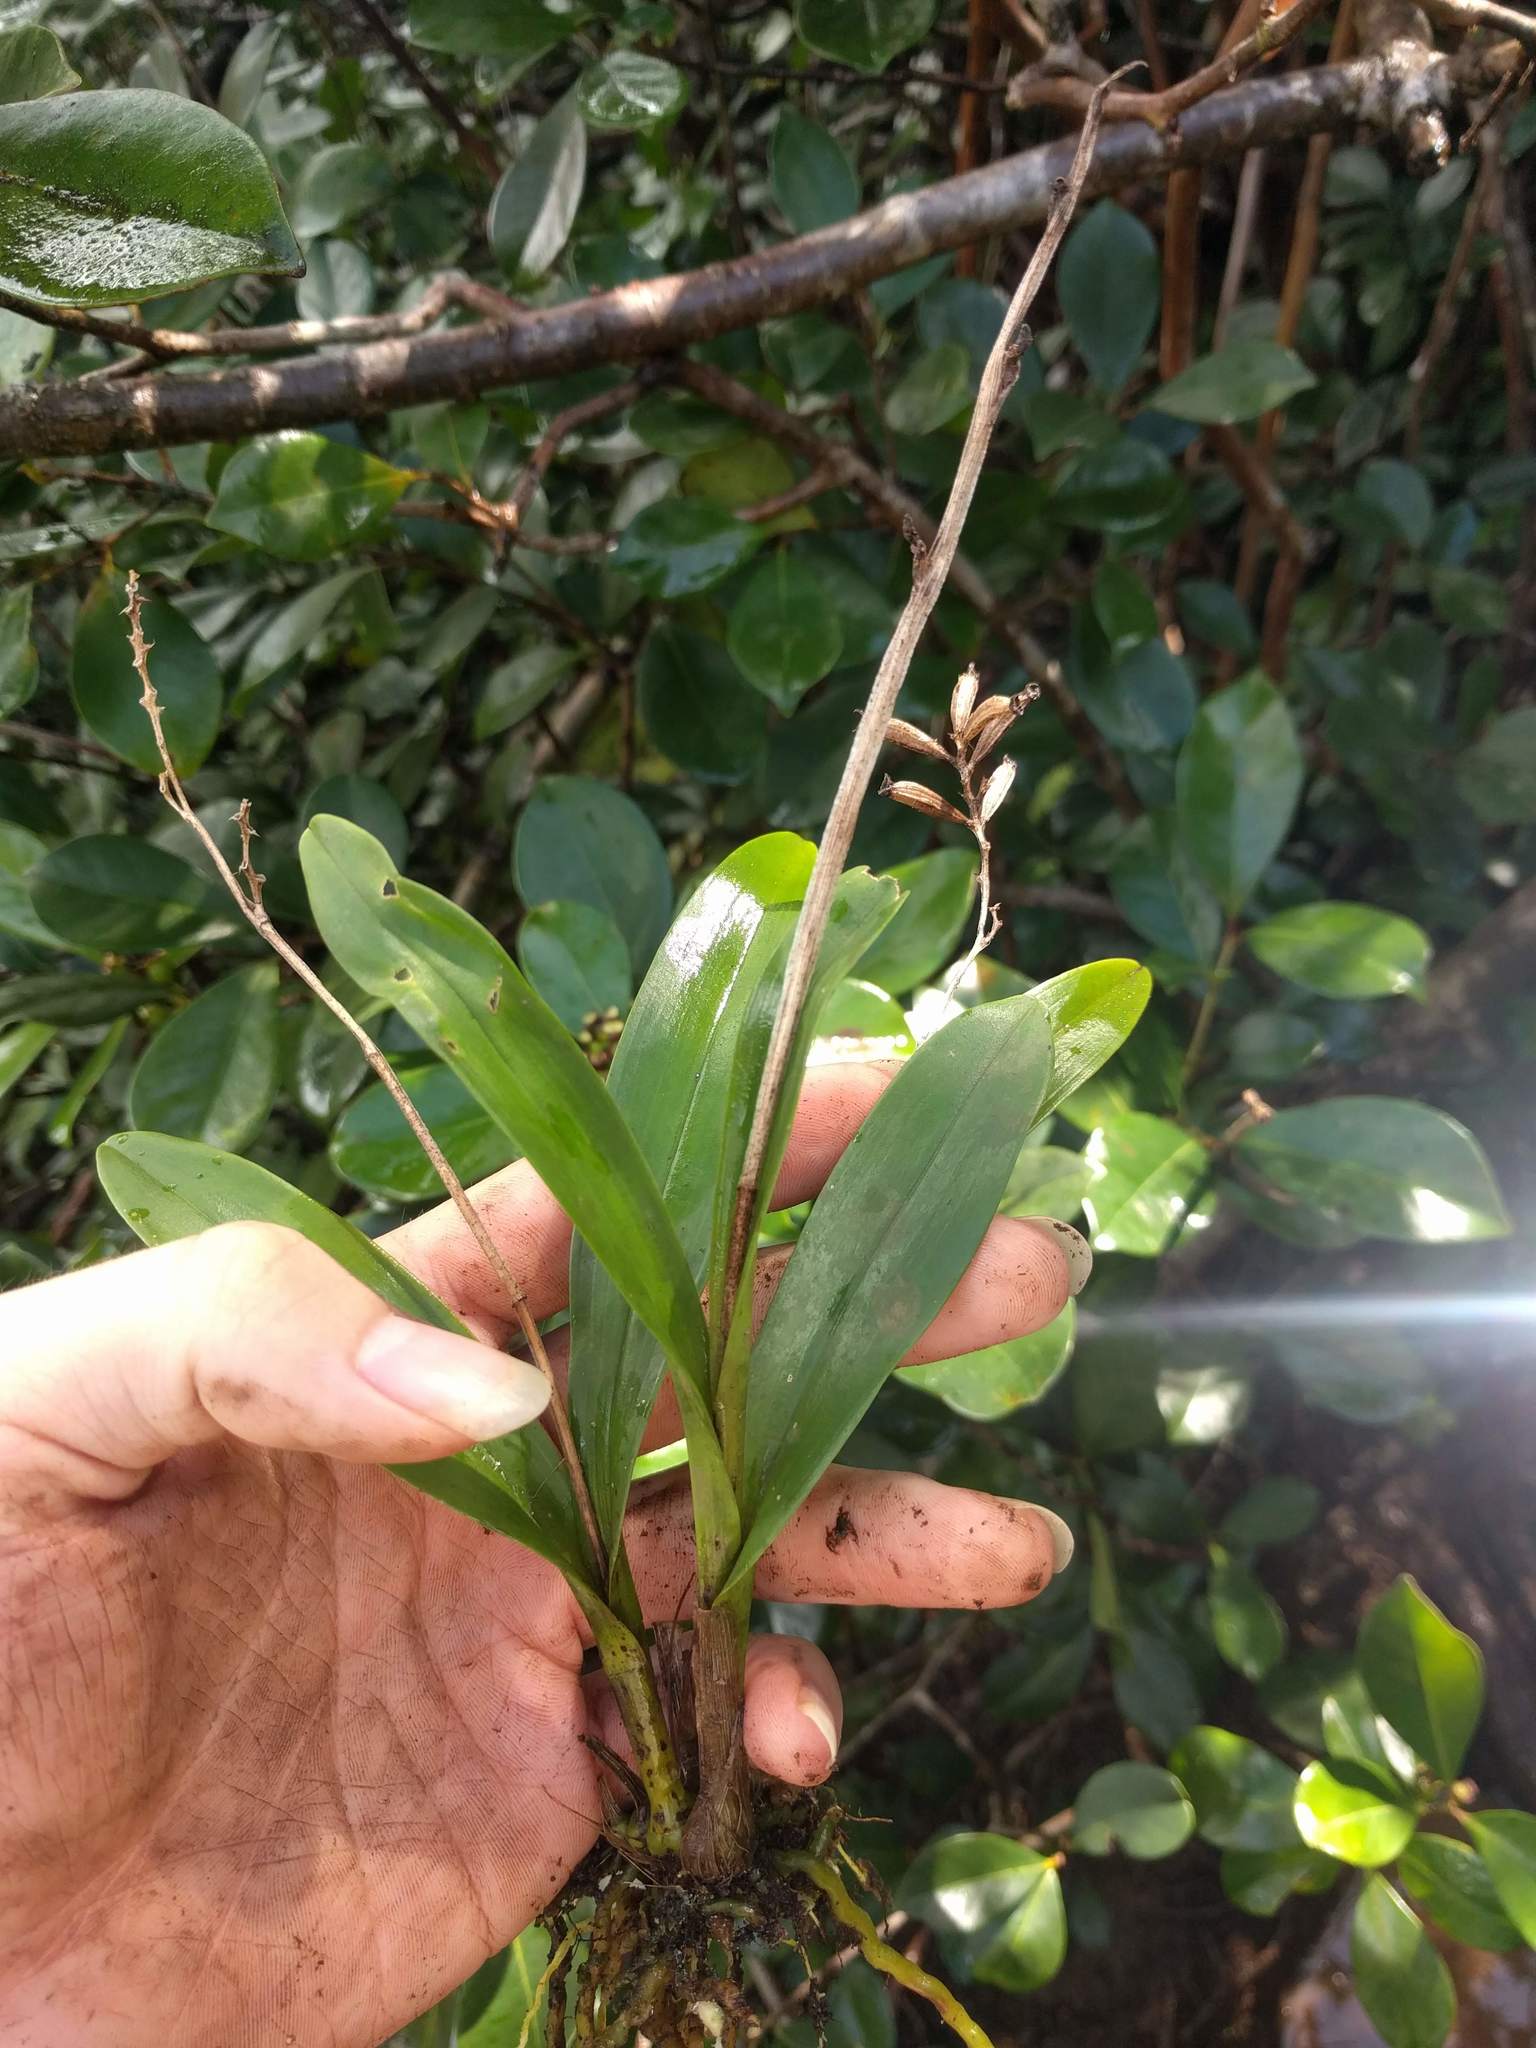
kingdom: Plantae
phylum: Tracheophyta
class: Liliopsida
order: Asparagales
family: Orchidaceae
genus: Polystachya
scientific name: Polystachya concreta
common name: Greater yellowspike orchid
